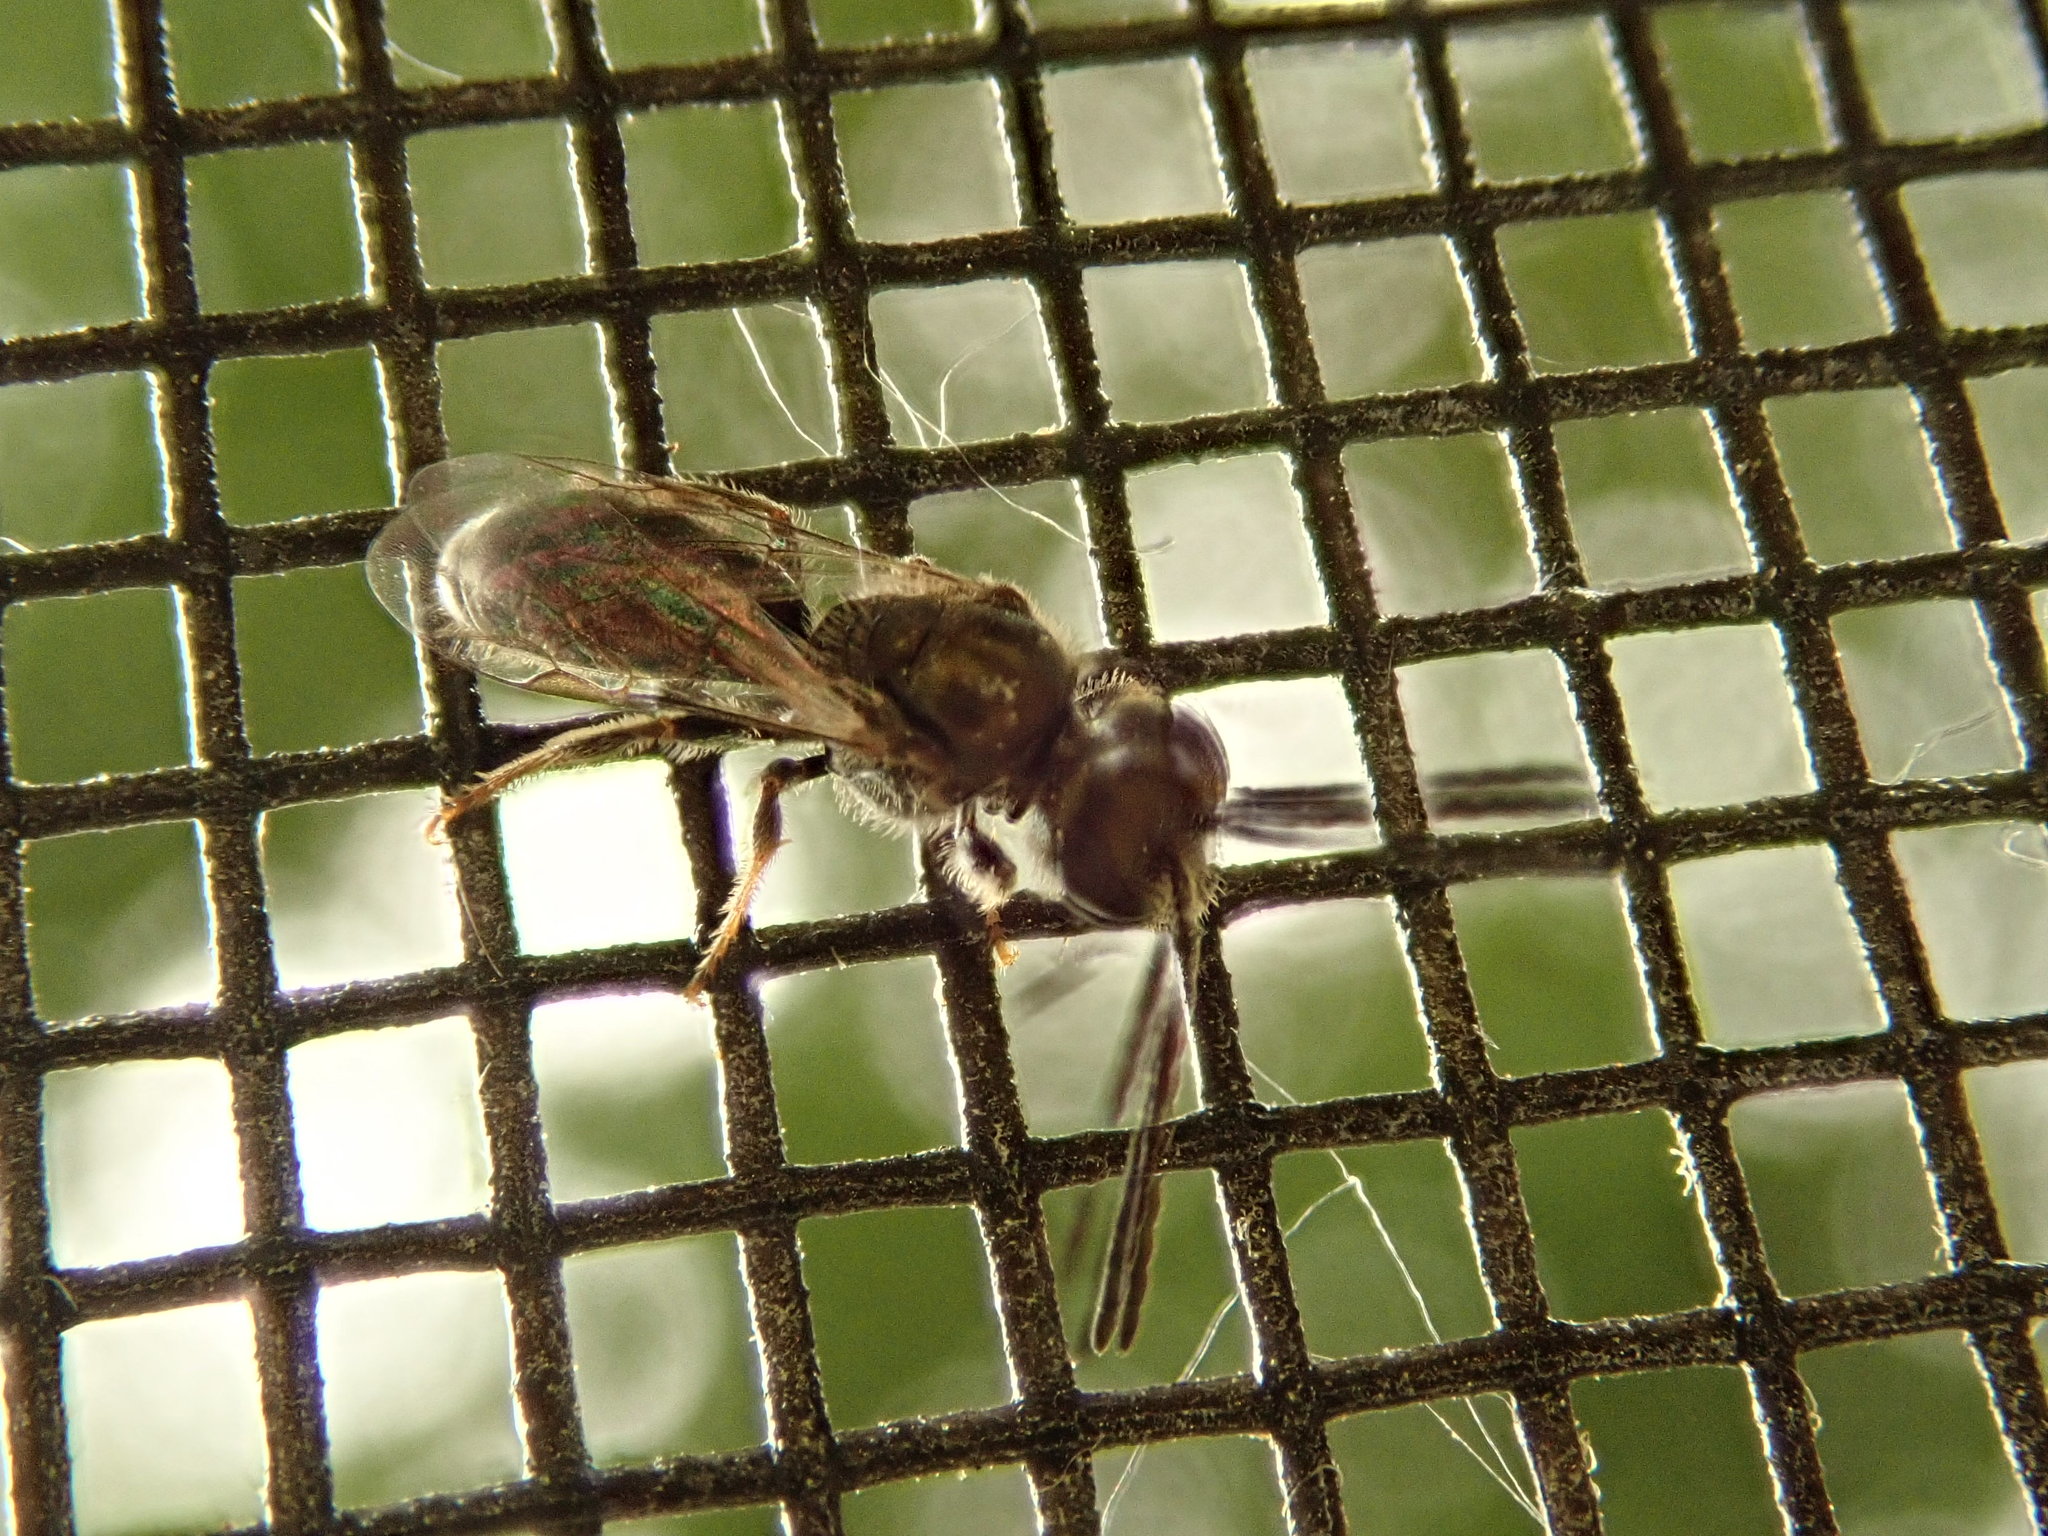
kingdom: Animalia
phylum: Arthropoda
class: Insecta
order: Hymenoptera
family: Halictidae
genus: Dialictus
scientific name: Dialictus
